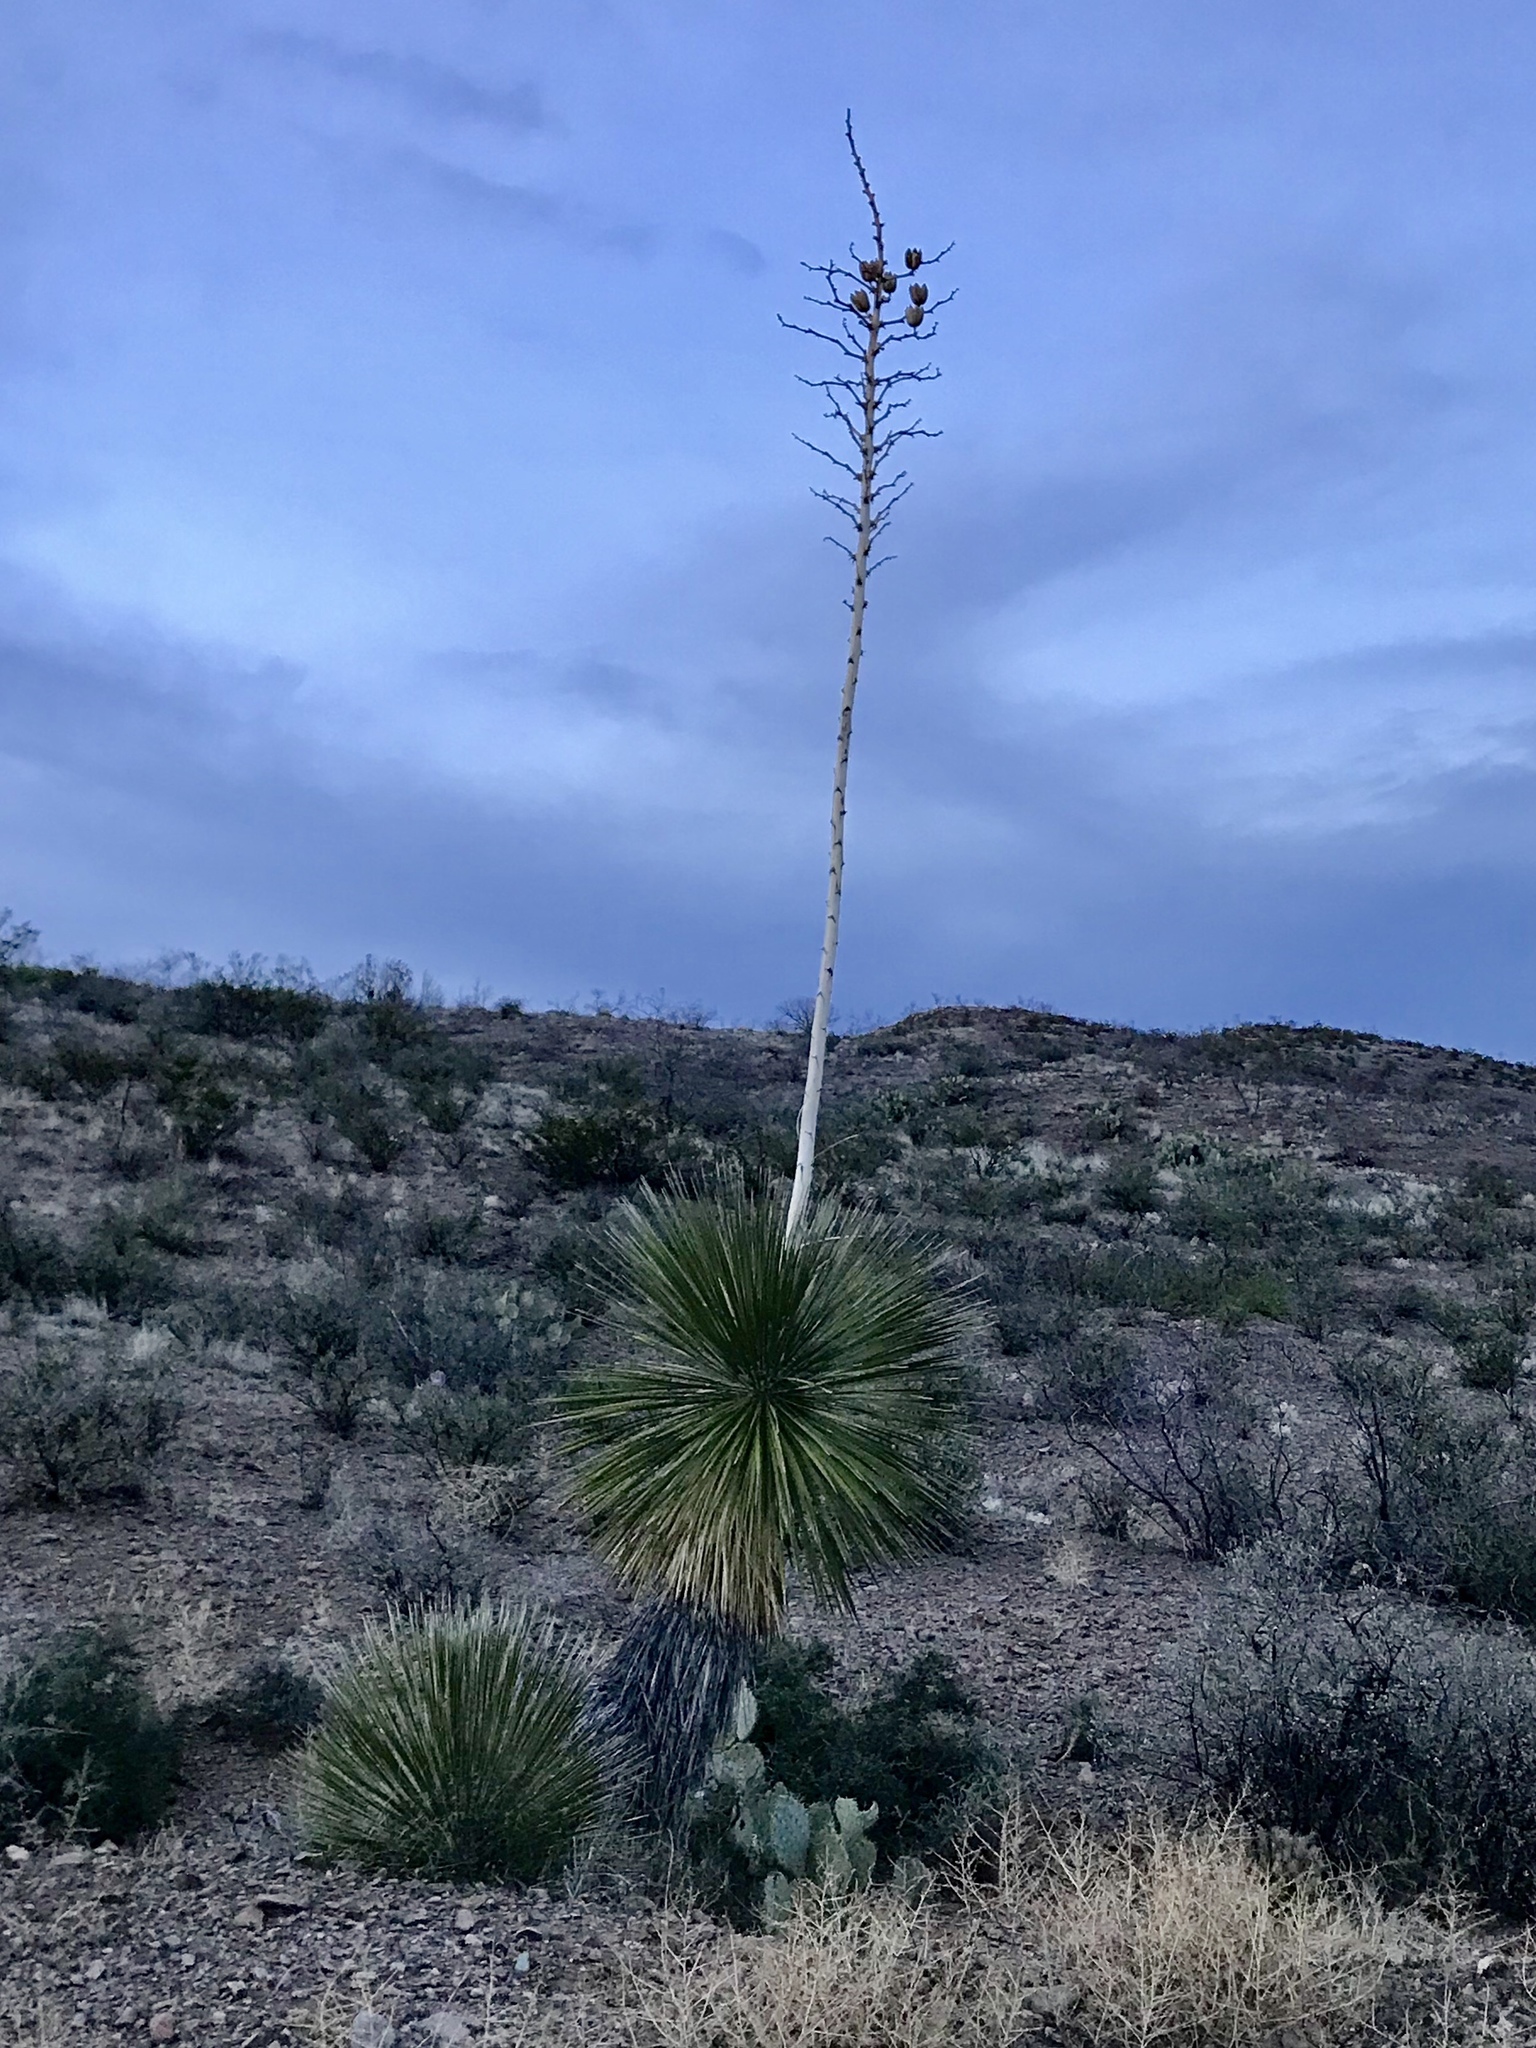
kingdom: Plantae
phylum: Tracheophyta
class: Liliopsida
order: Asparagales
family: Asparagaceae
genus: Yucca
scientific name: Yucca elata
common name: Palmella
